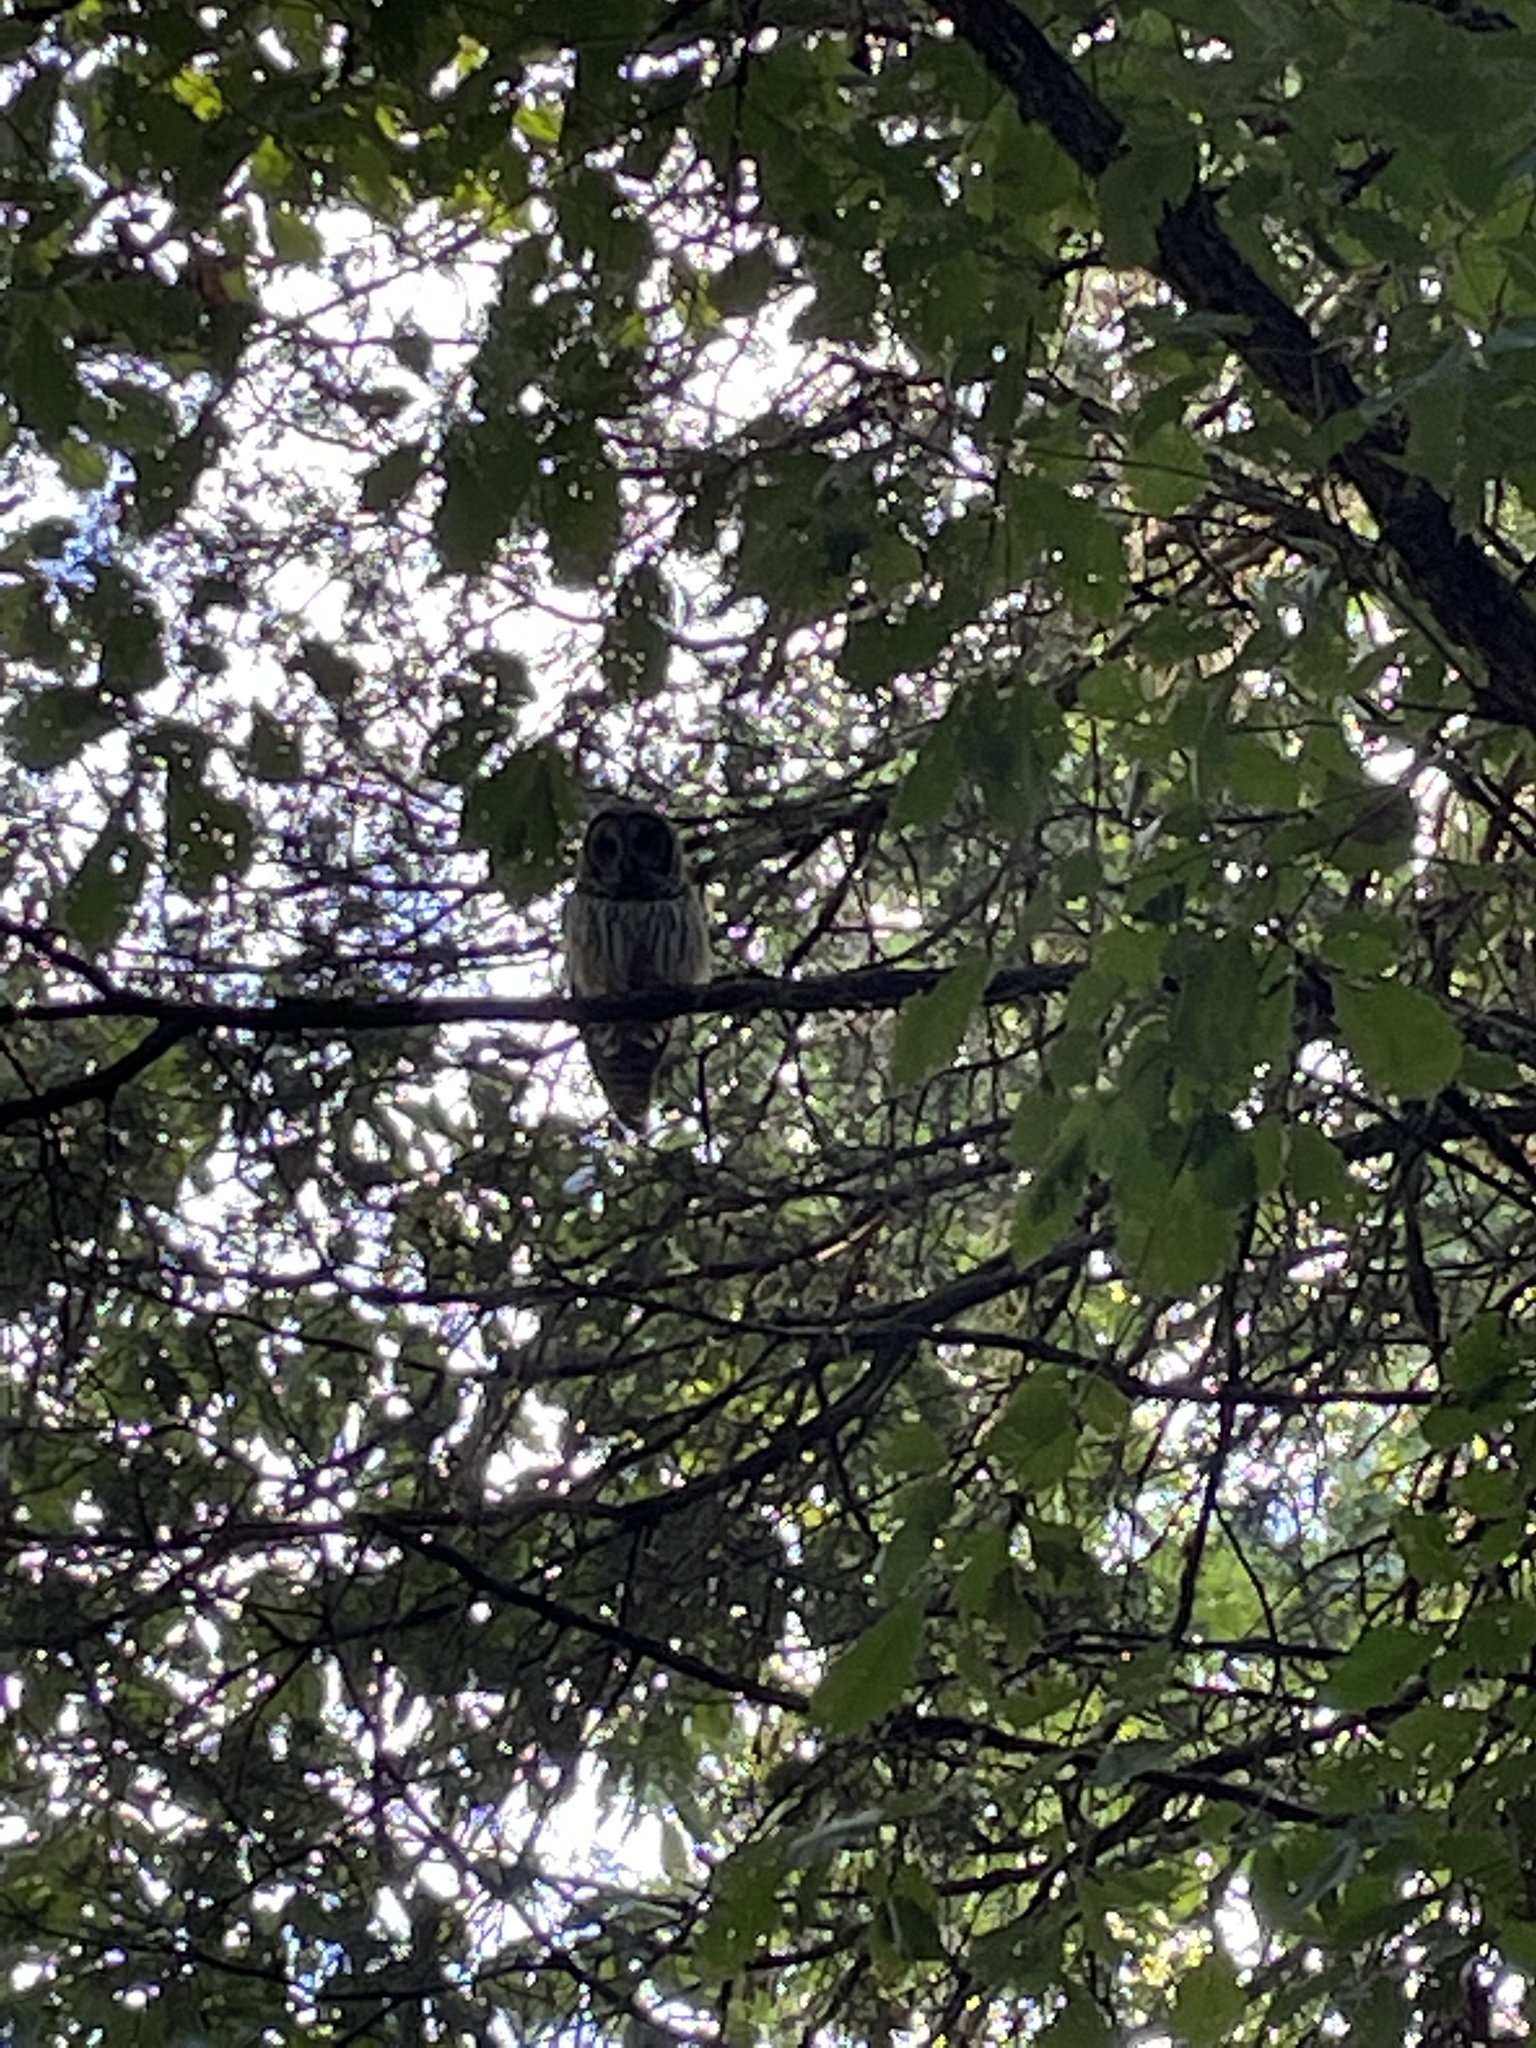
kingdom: Animalia
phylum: Chordata
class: Aves
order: Strigiformes
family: Strigidae
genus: Strix
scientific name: Strix varia
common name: Barred owl
